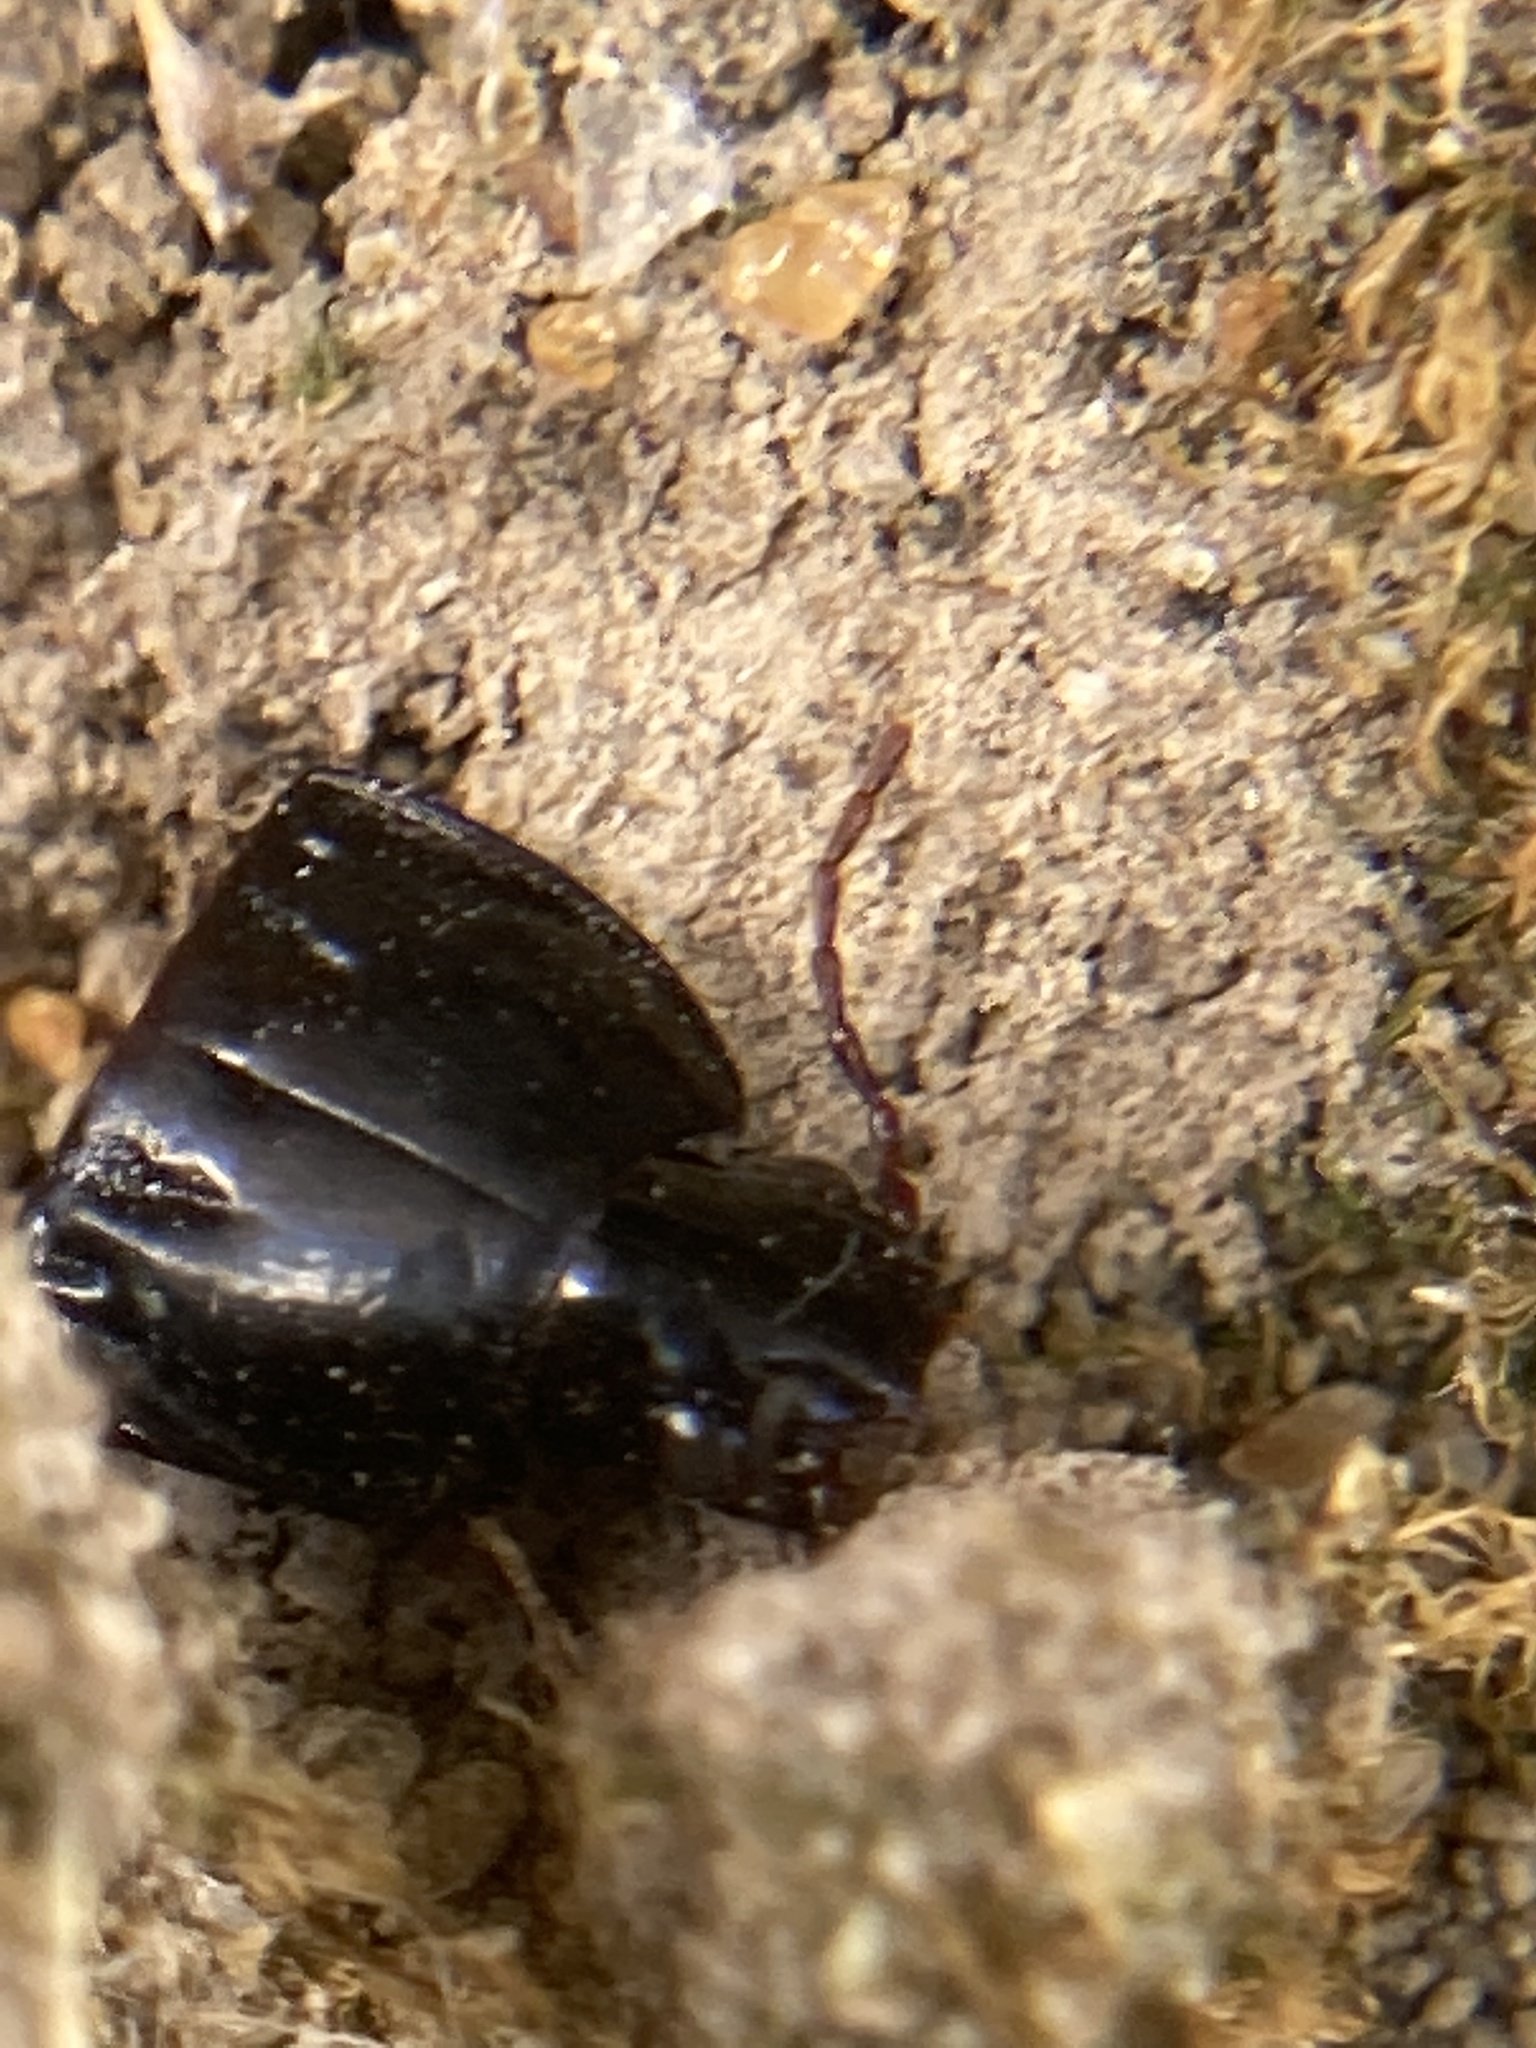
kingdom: Animalia
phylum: Arthropoda
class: Insecta
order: Coleoptera
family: Carabidae
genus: Abacidus
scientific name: Abacidus
